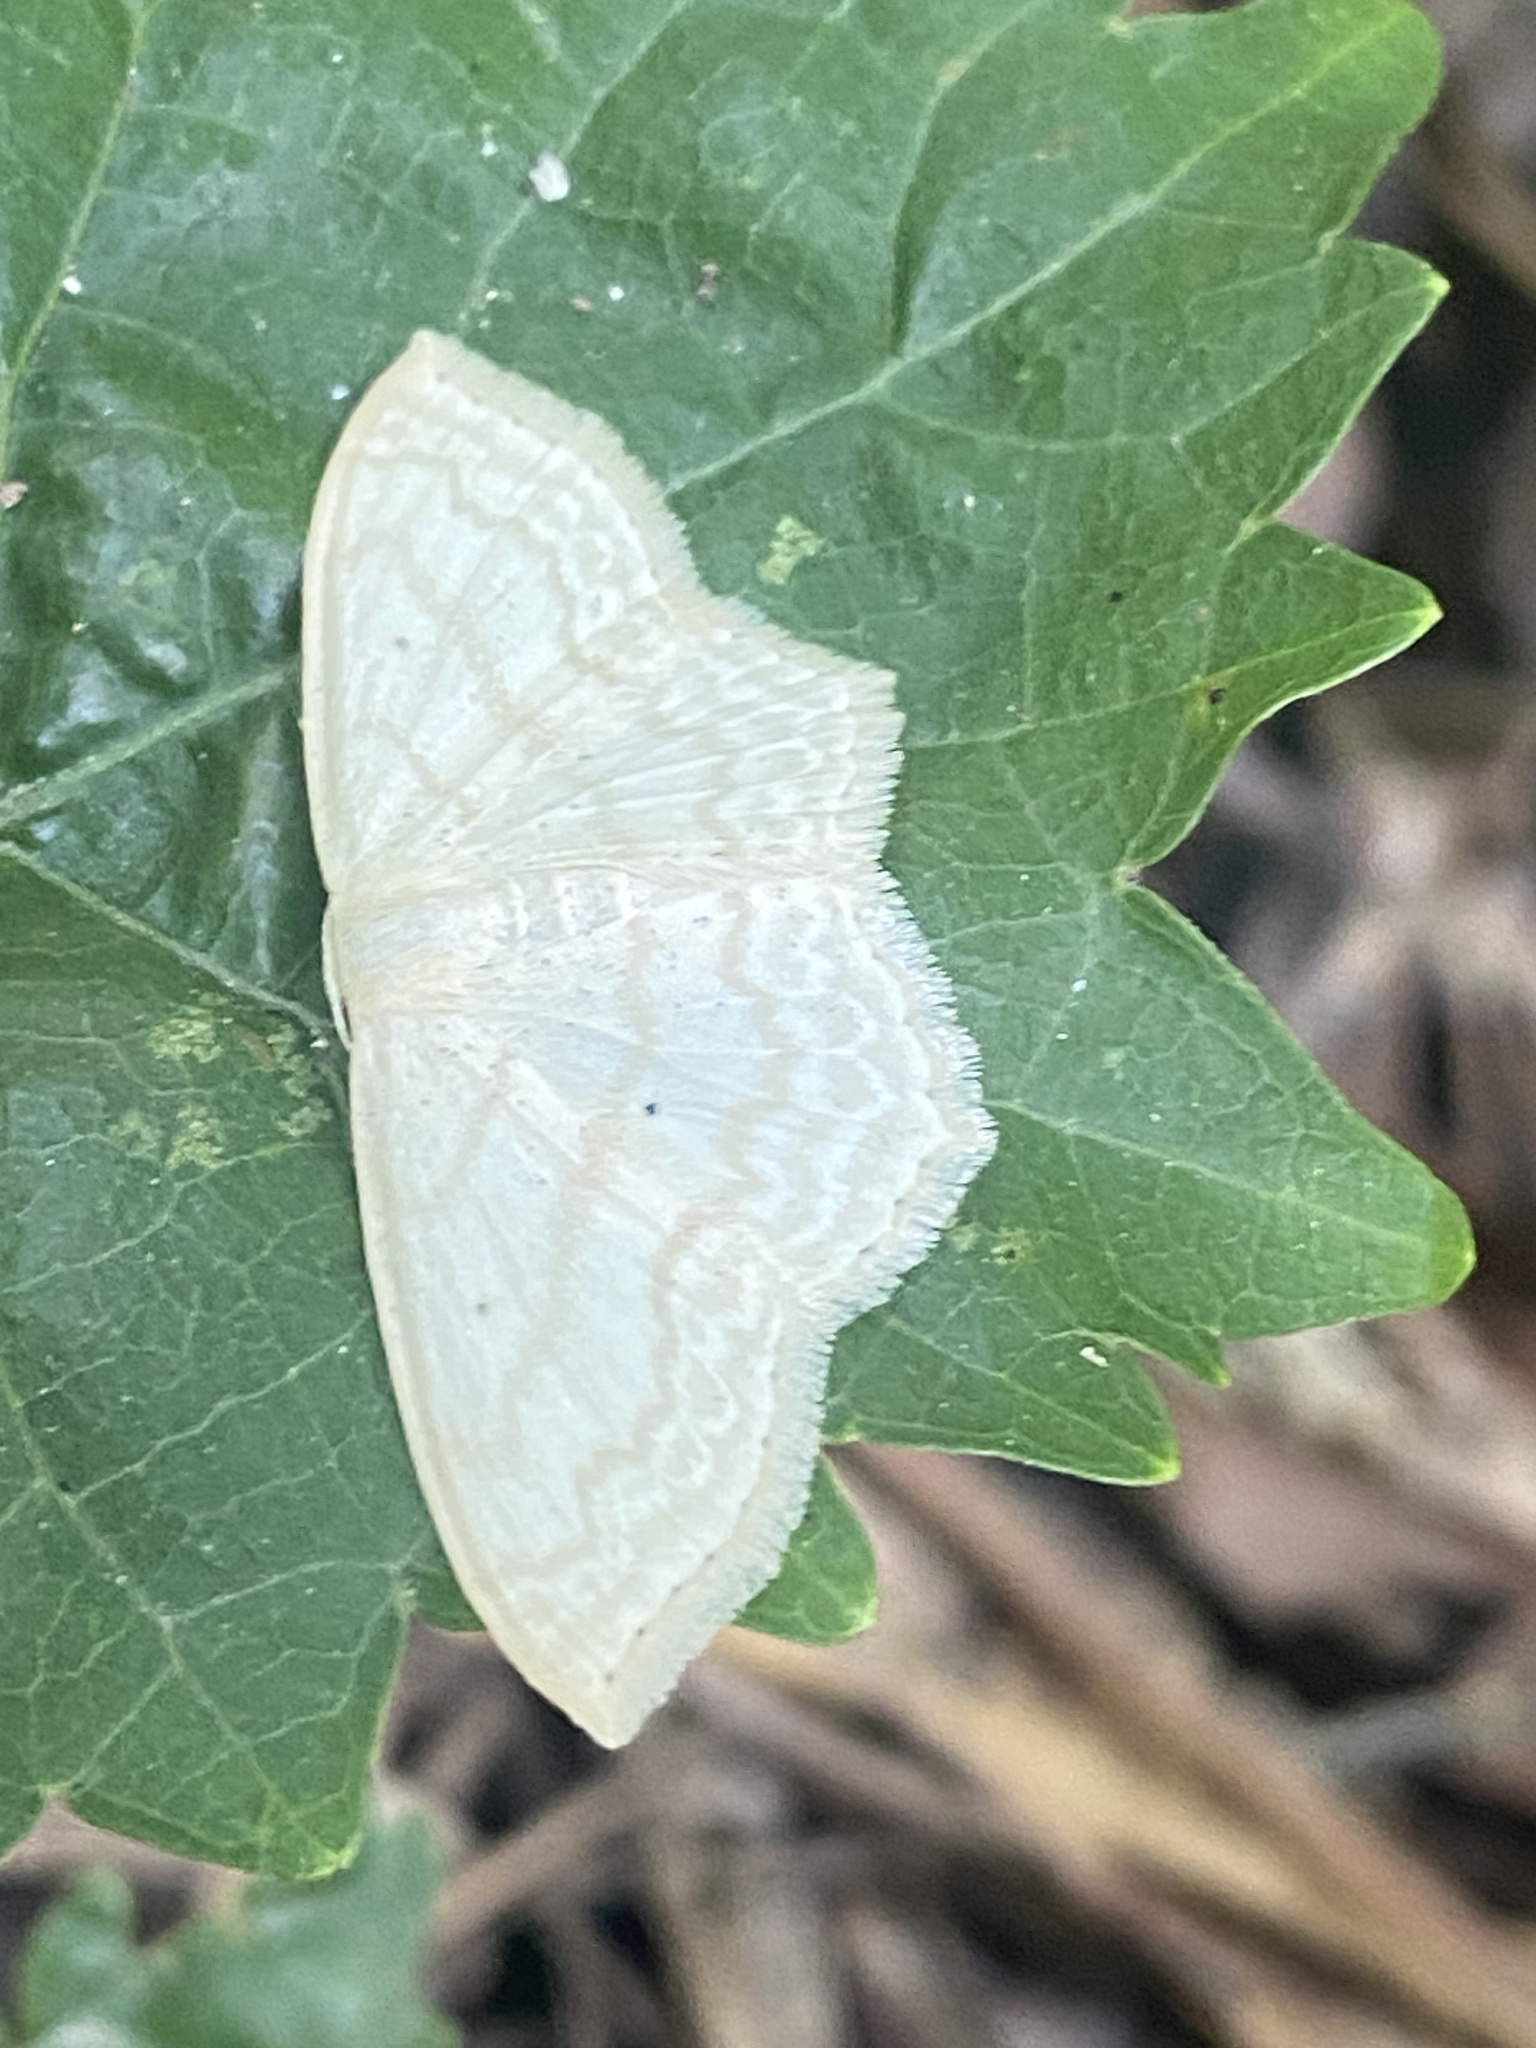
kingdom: Animalia
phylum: Arthropoda
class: Insecta
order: Lepidoptera
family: Geometridae
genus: Scopula
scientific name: Scopula limboundata
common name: Large lace border
